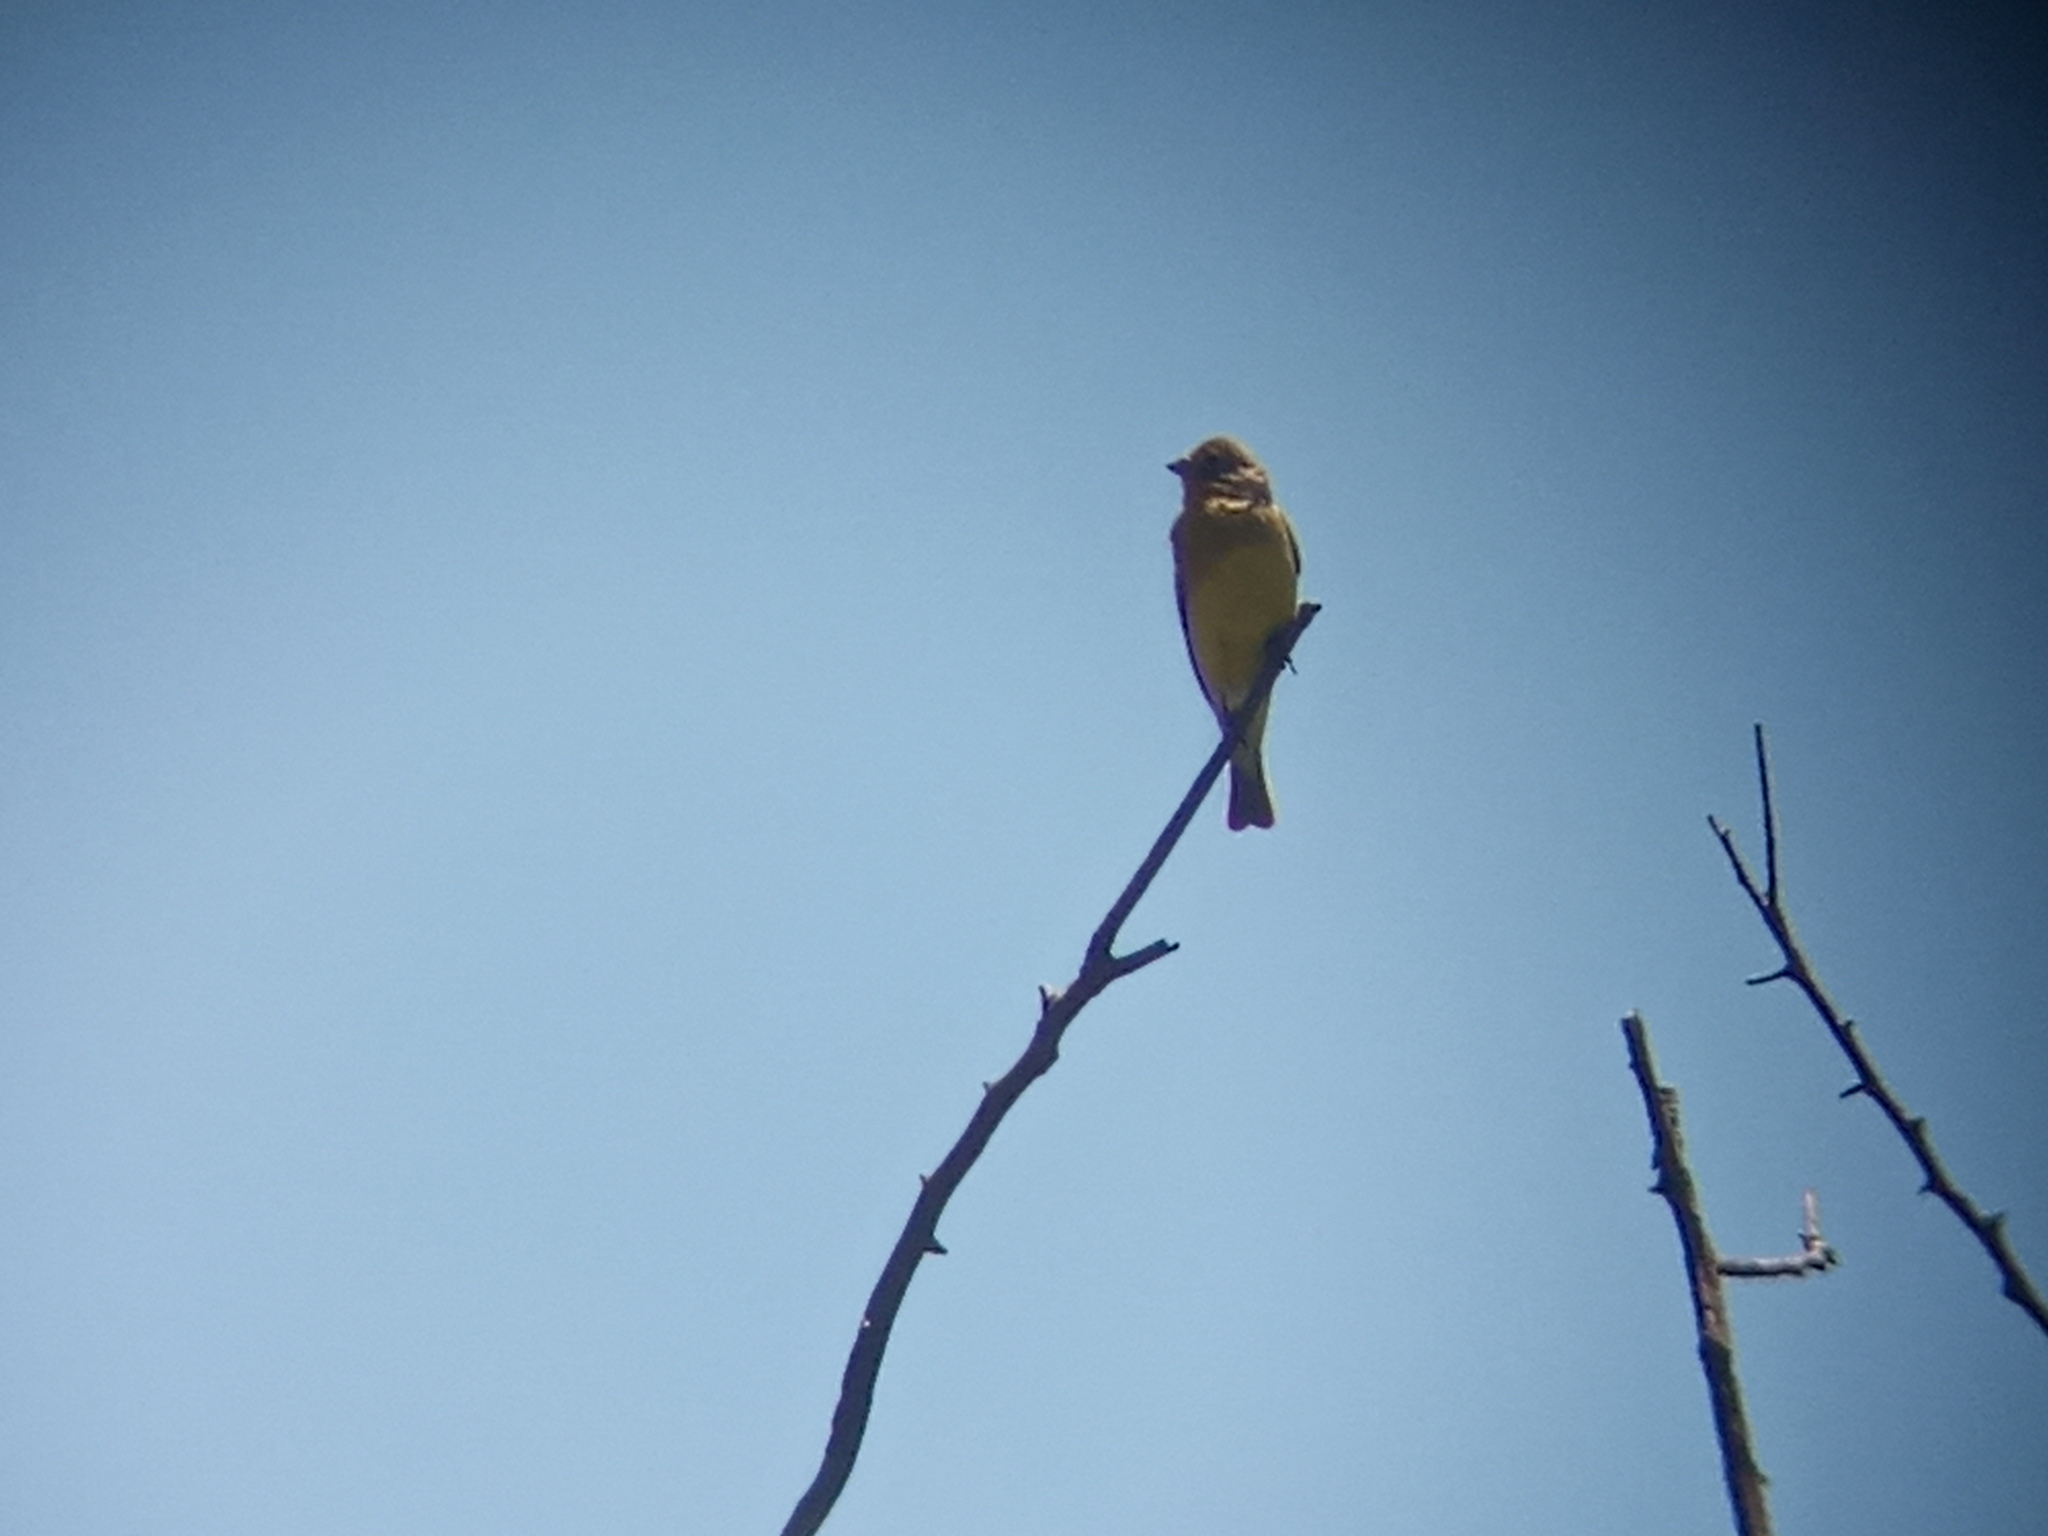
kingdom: Animalia
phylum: Chordata
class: Aves
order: Passeriformes
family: Thraupidae
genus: Sicalis
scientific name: Sicalis luteola
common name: Grassland yellow-finch
